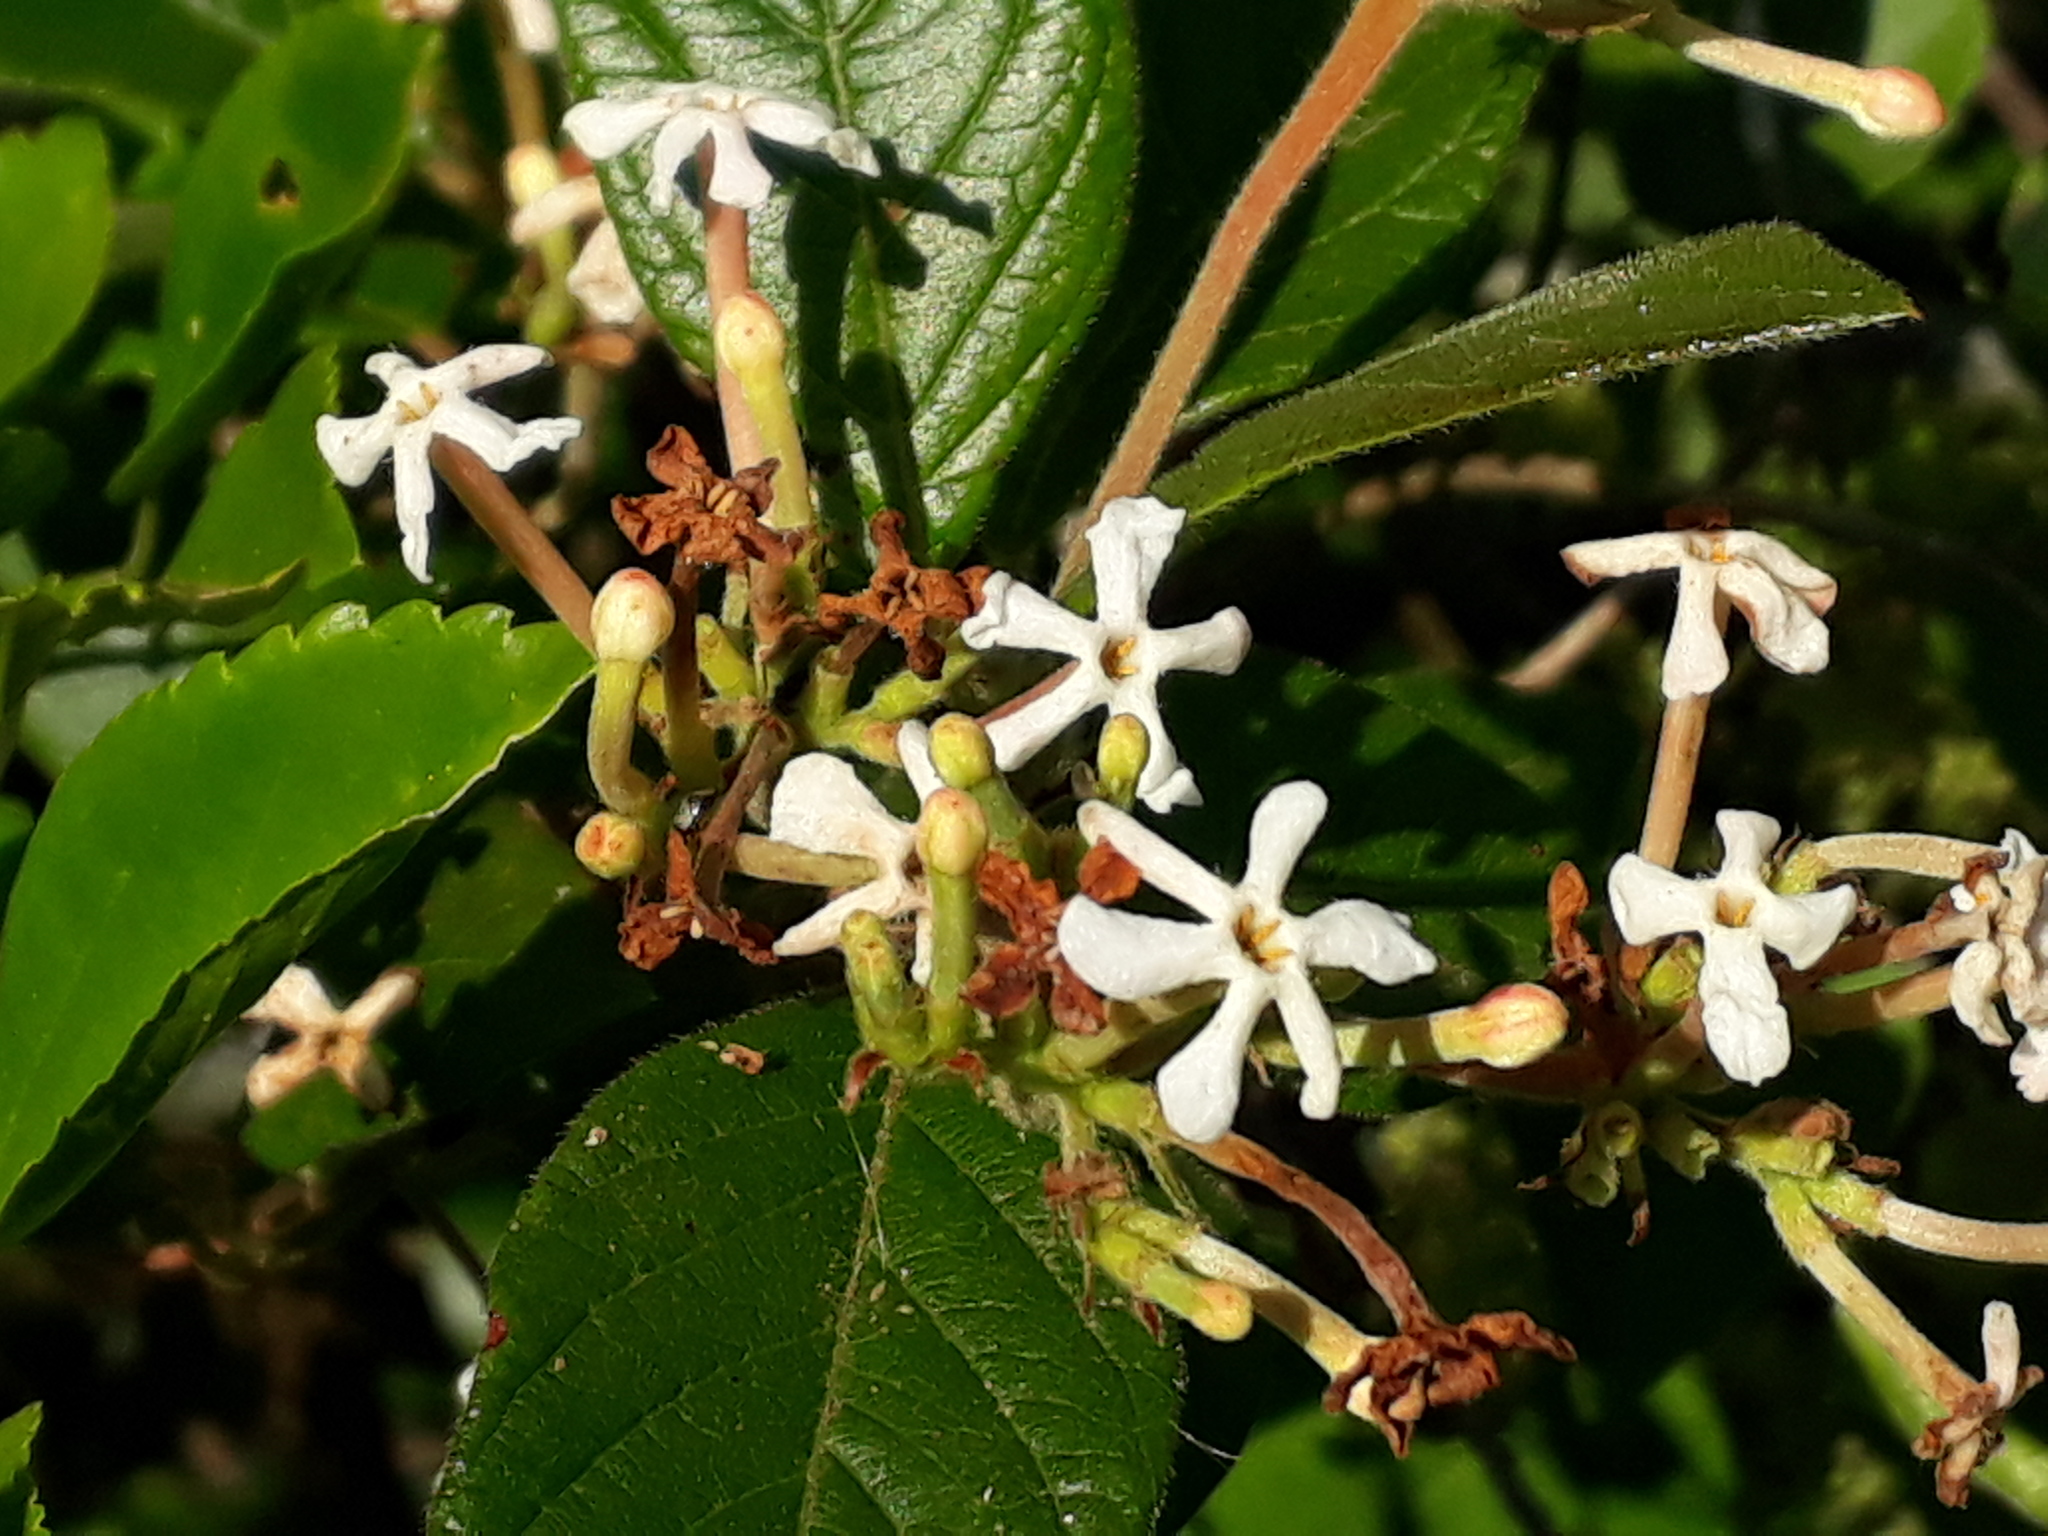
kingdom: Plantae
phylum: Tracheophyta
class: Magnoliopsida
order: Gentianales
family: Rubiaceae
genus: Guettarda
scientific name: Guettarda uruguensis
